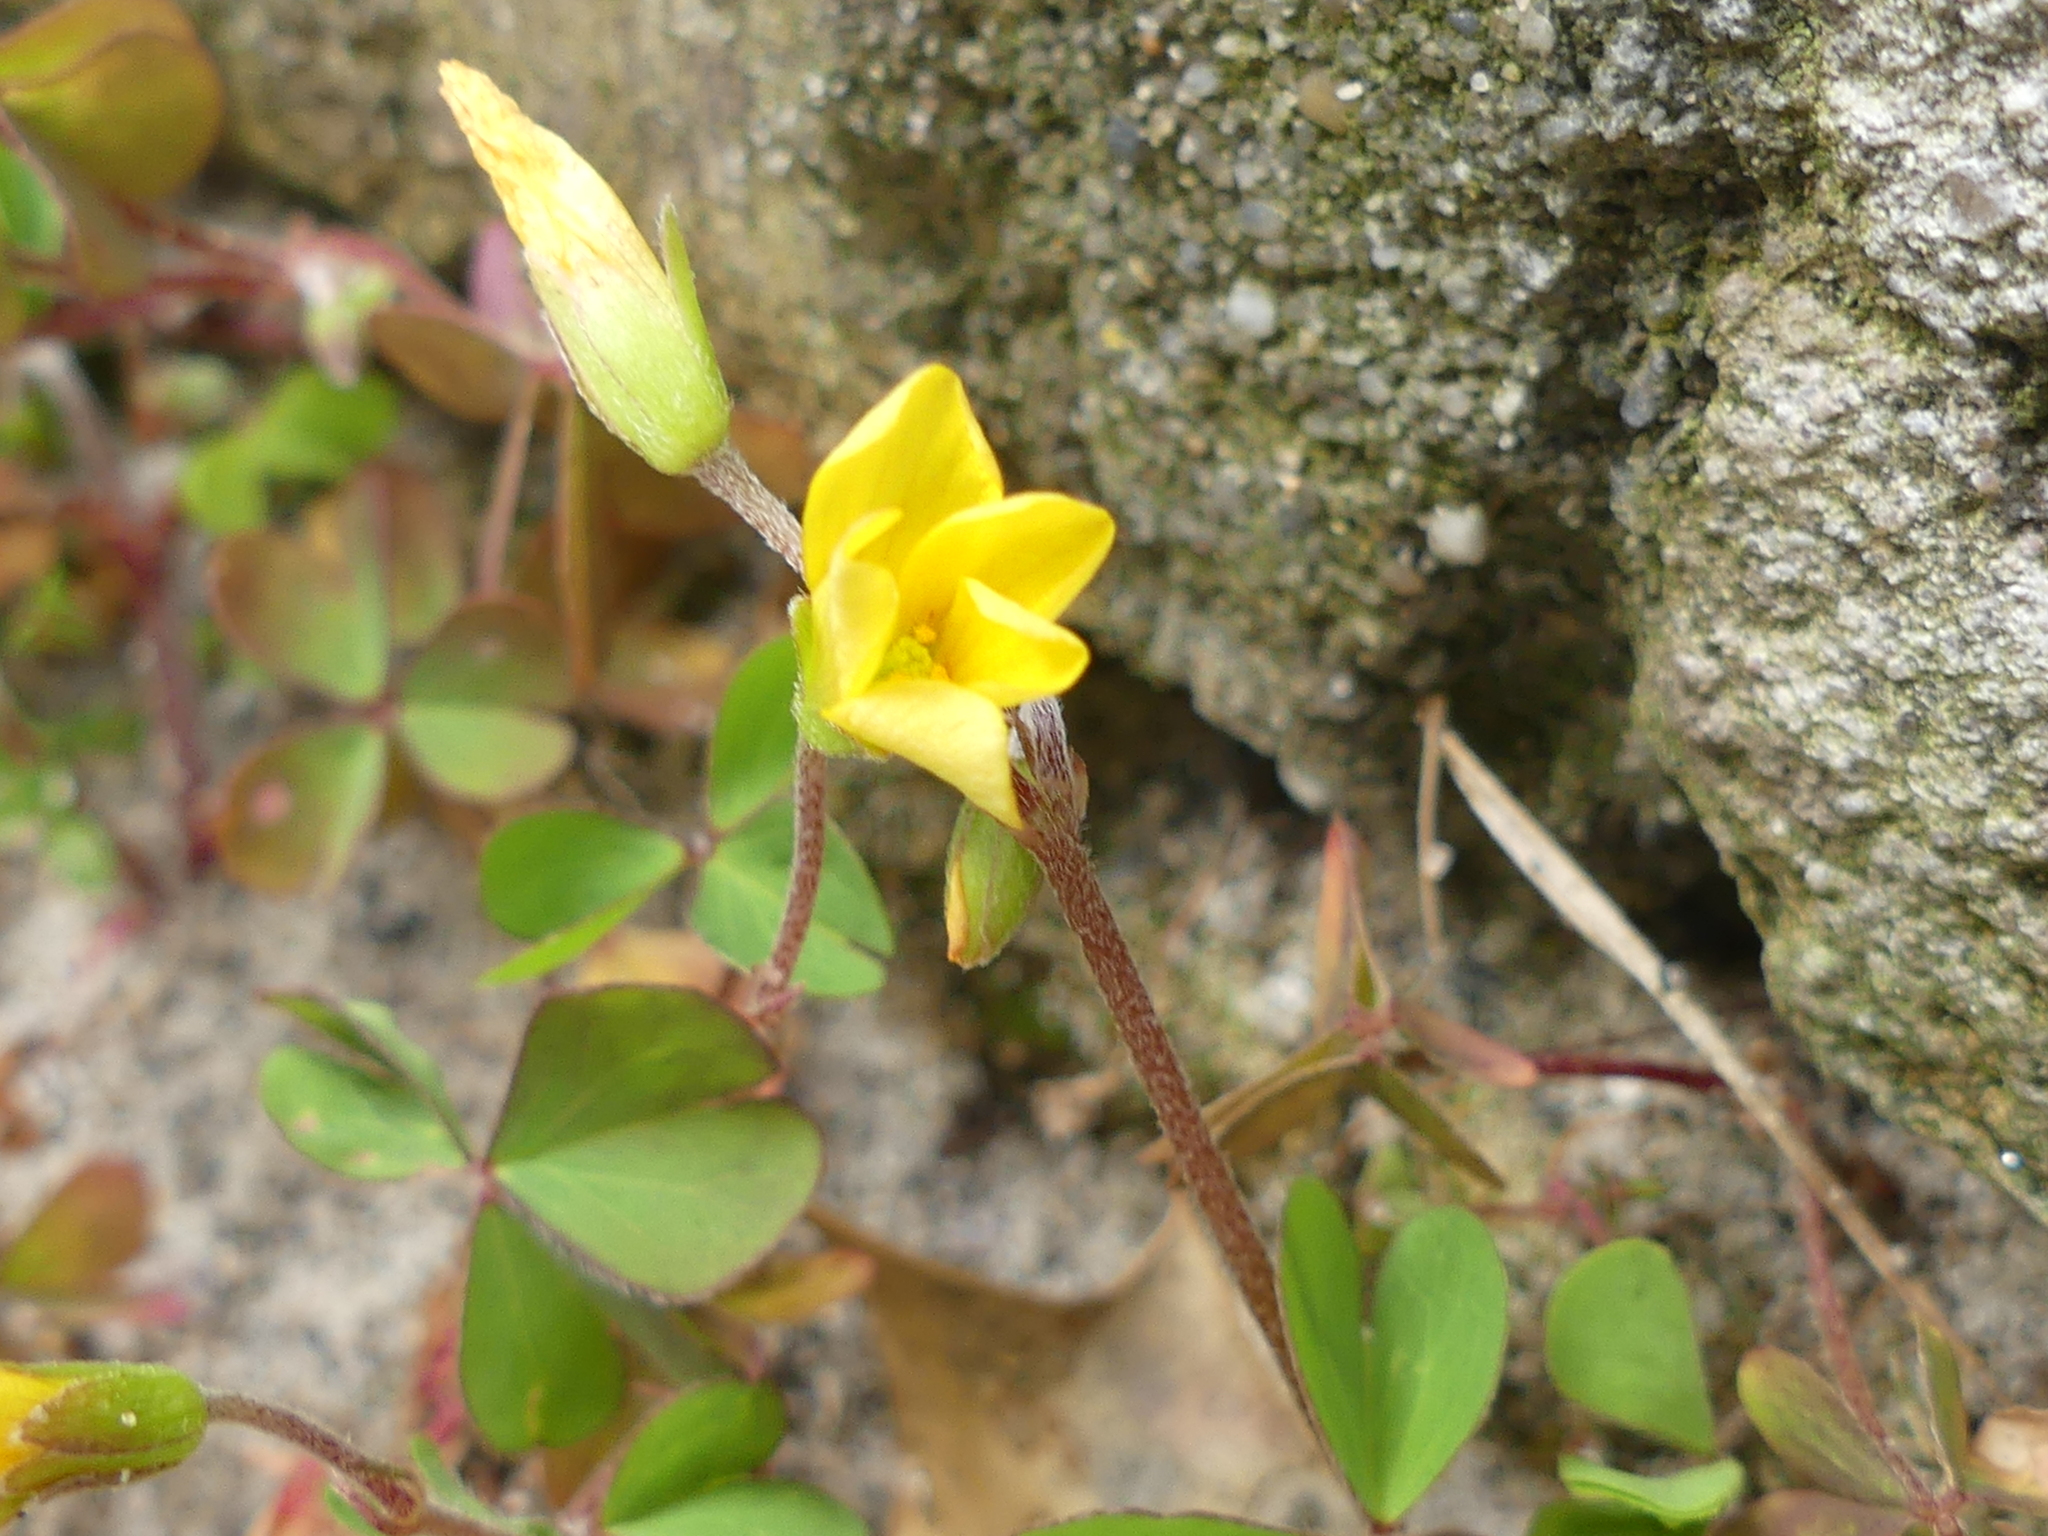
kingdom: Plantae
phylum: Tracheophyta
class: Magnoliopsida
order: Oxalidales
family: Oxalidaceae
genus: Oxalis
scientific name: Oxalis corniculata
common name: Procumbent yellow-sorrel
